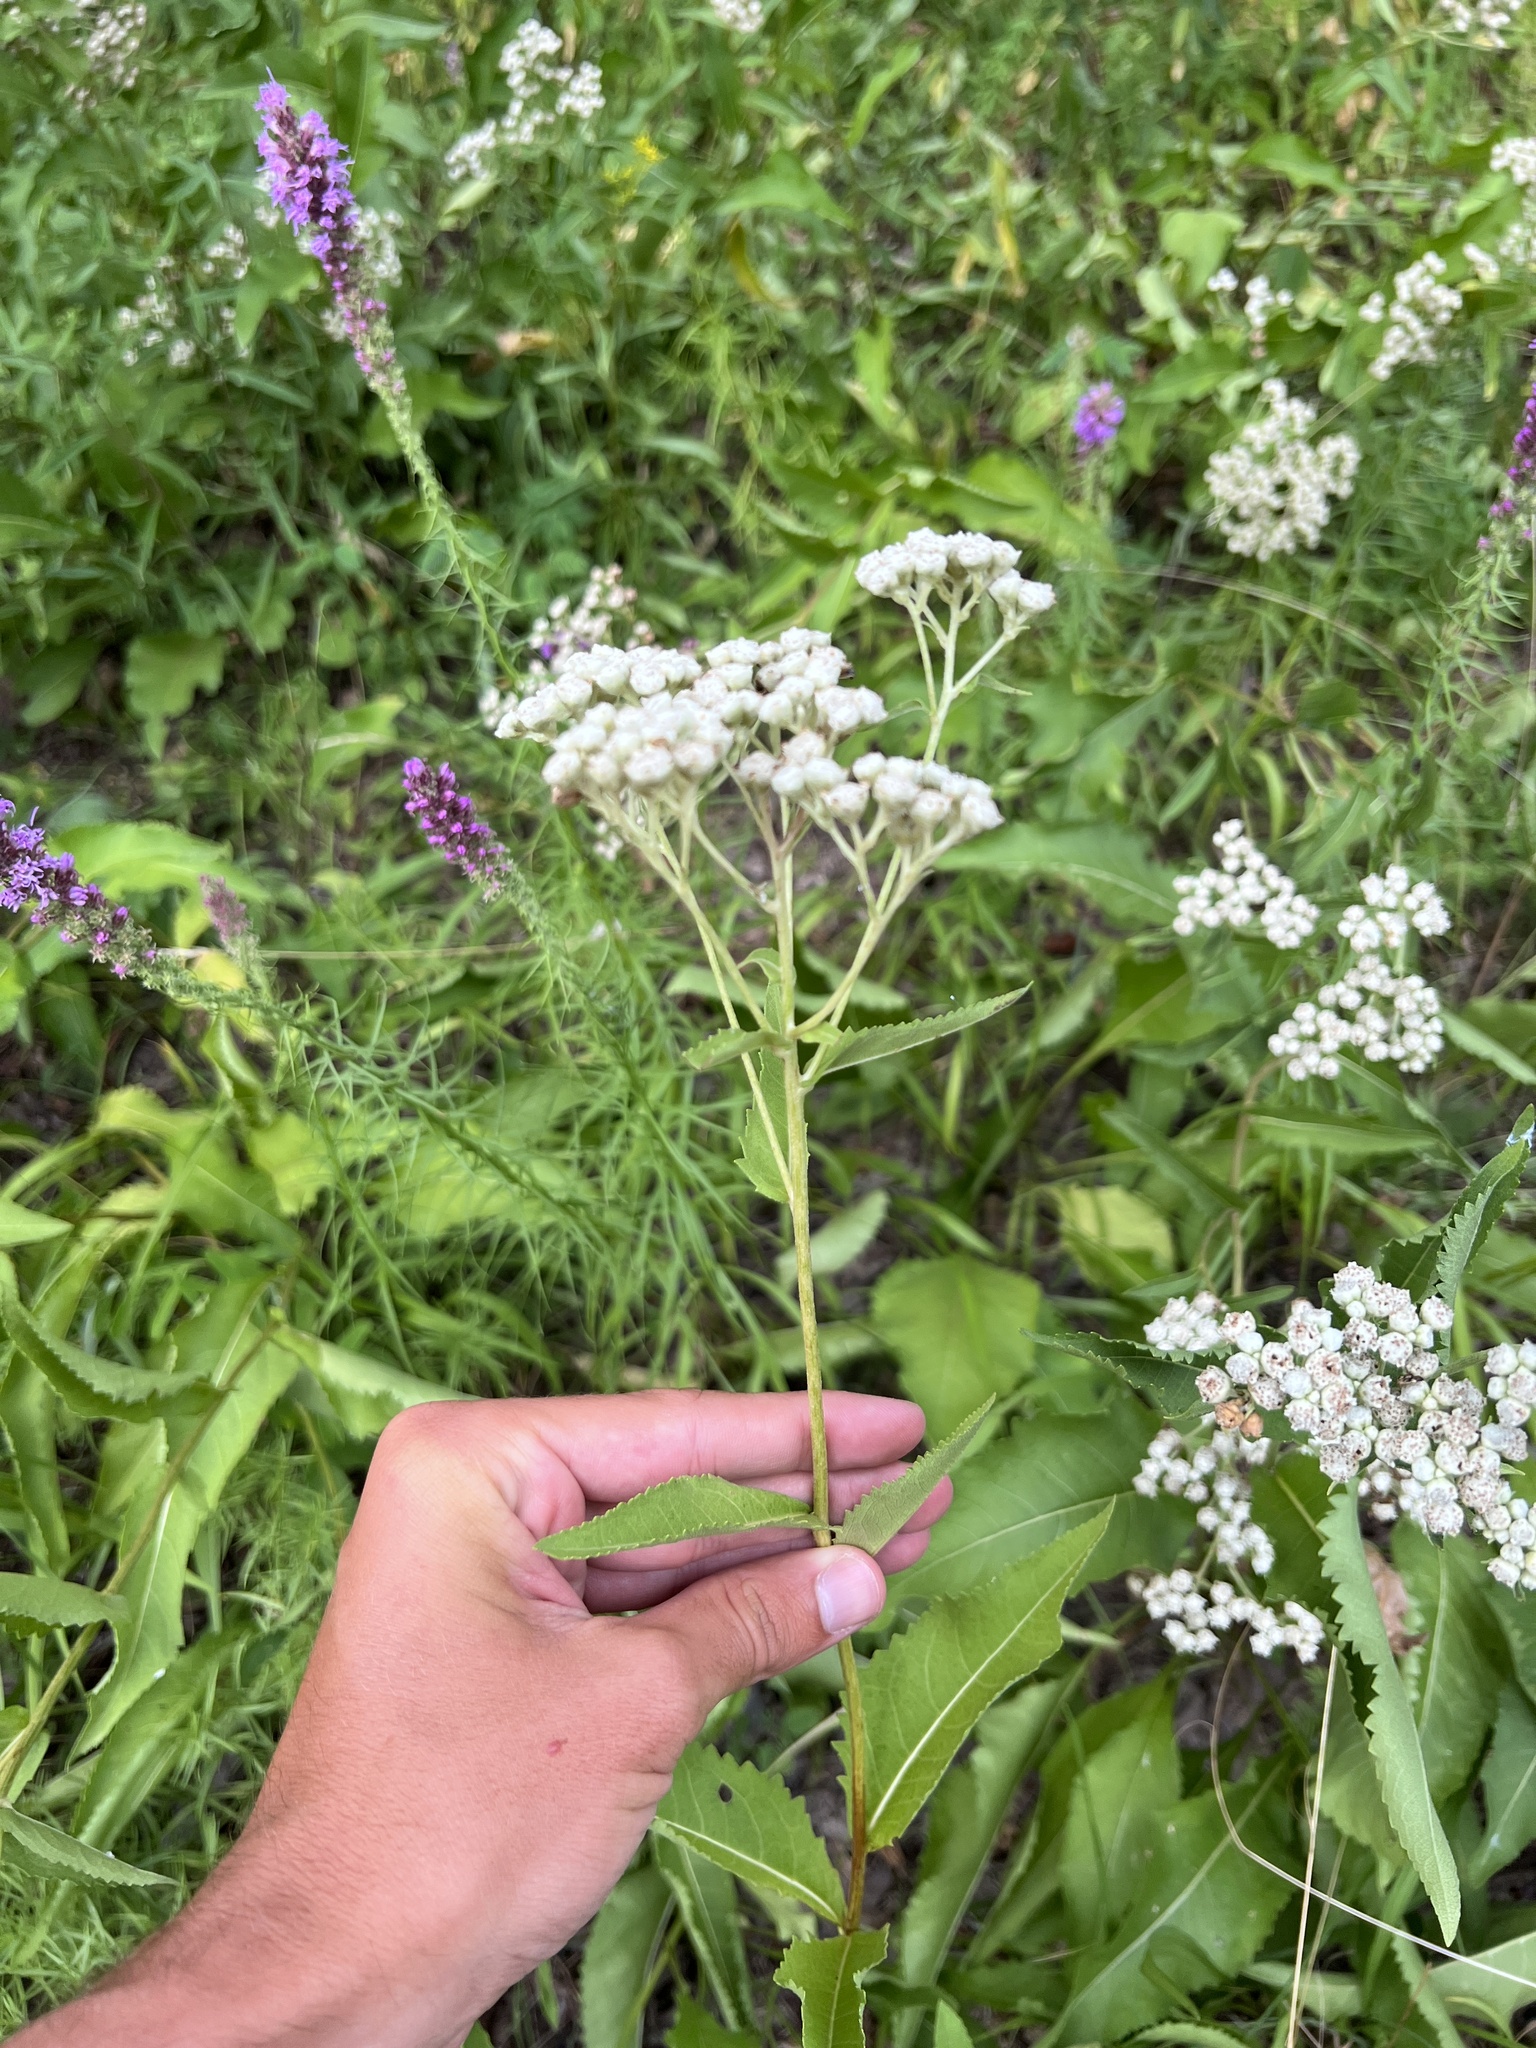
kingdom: Plantae
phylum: Tracheophyta
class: Magnoliopsida
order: Asterales
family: Asteraceae
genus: Parthenium
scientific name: Parthenium integrifolium
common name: American feverfew
